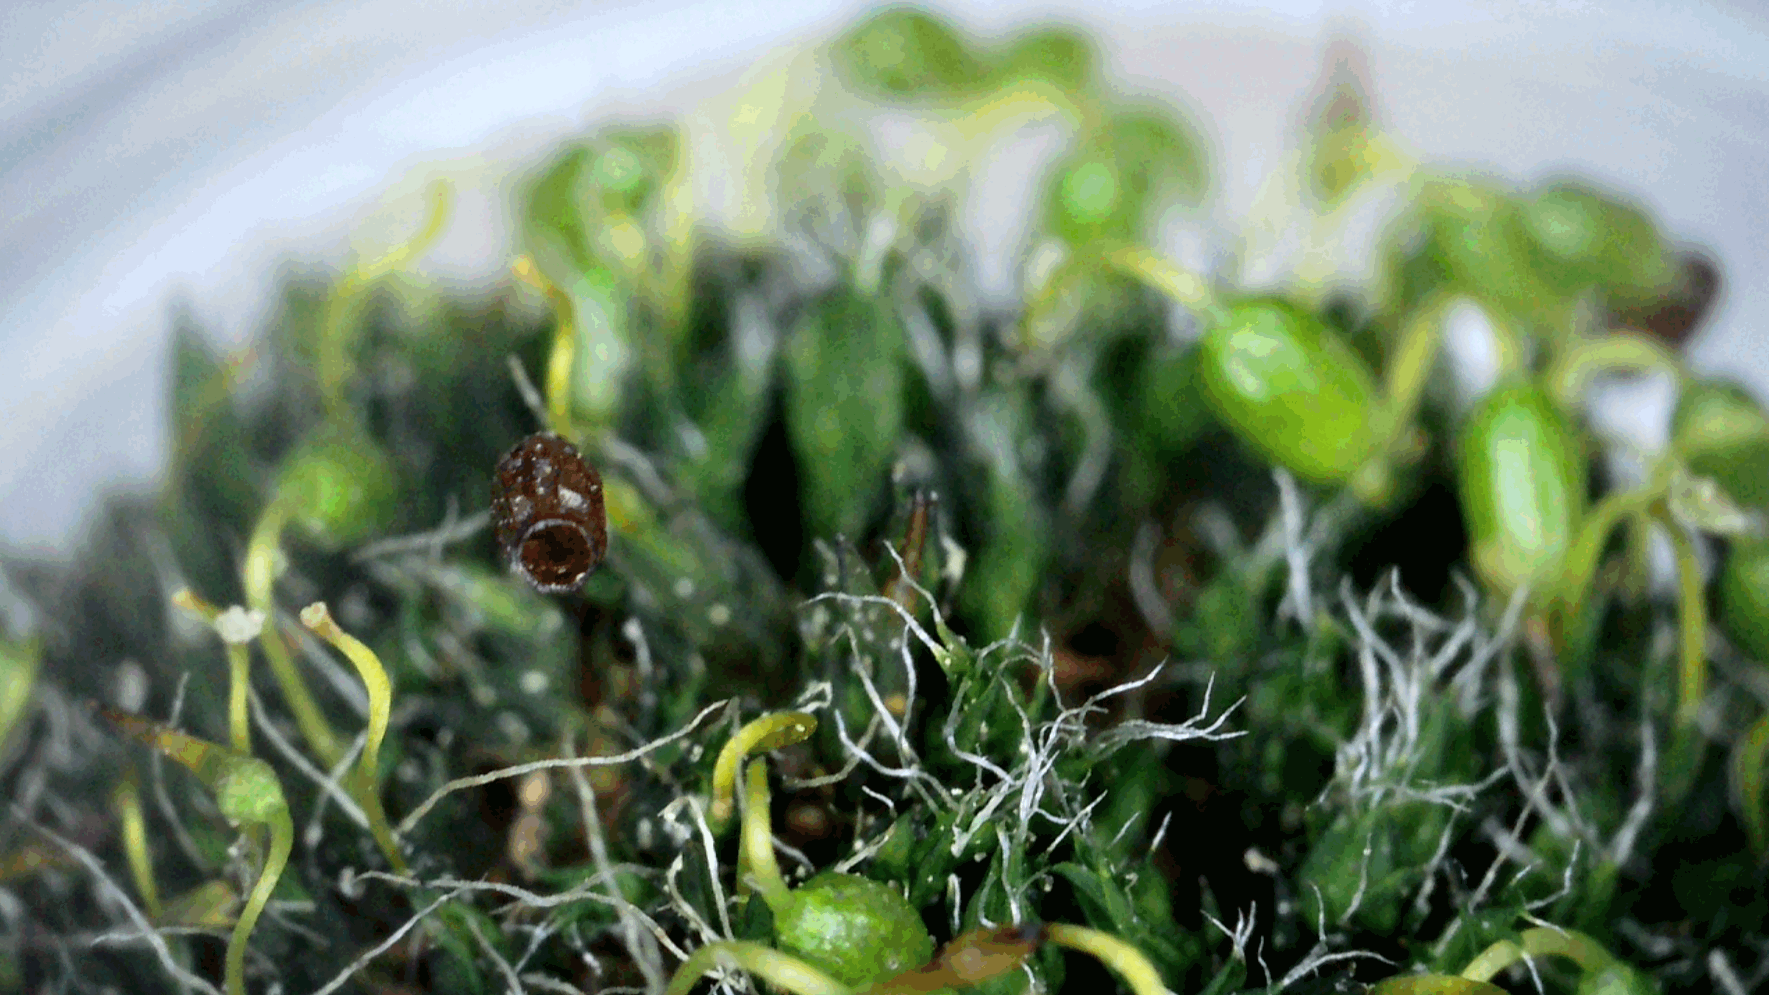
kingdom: Plantae
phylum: Bryophyta
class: Bryopsida
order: Grimmiales
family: Grimmiaceae
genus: Grimmia
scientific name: Grimmia pulvinata
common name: Grey-cushioned grimmia
